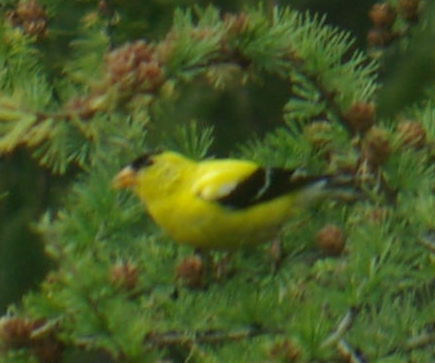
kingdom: Animalia
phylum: Chordata
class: Aves
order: Passeriformes
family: Fringillidae
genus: Spinus
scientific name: Spinus tristis
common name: American goldfinch
